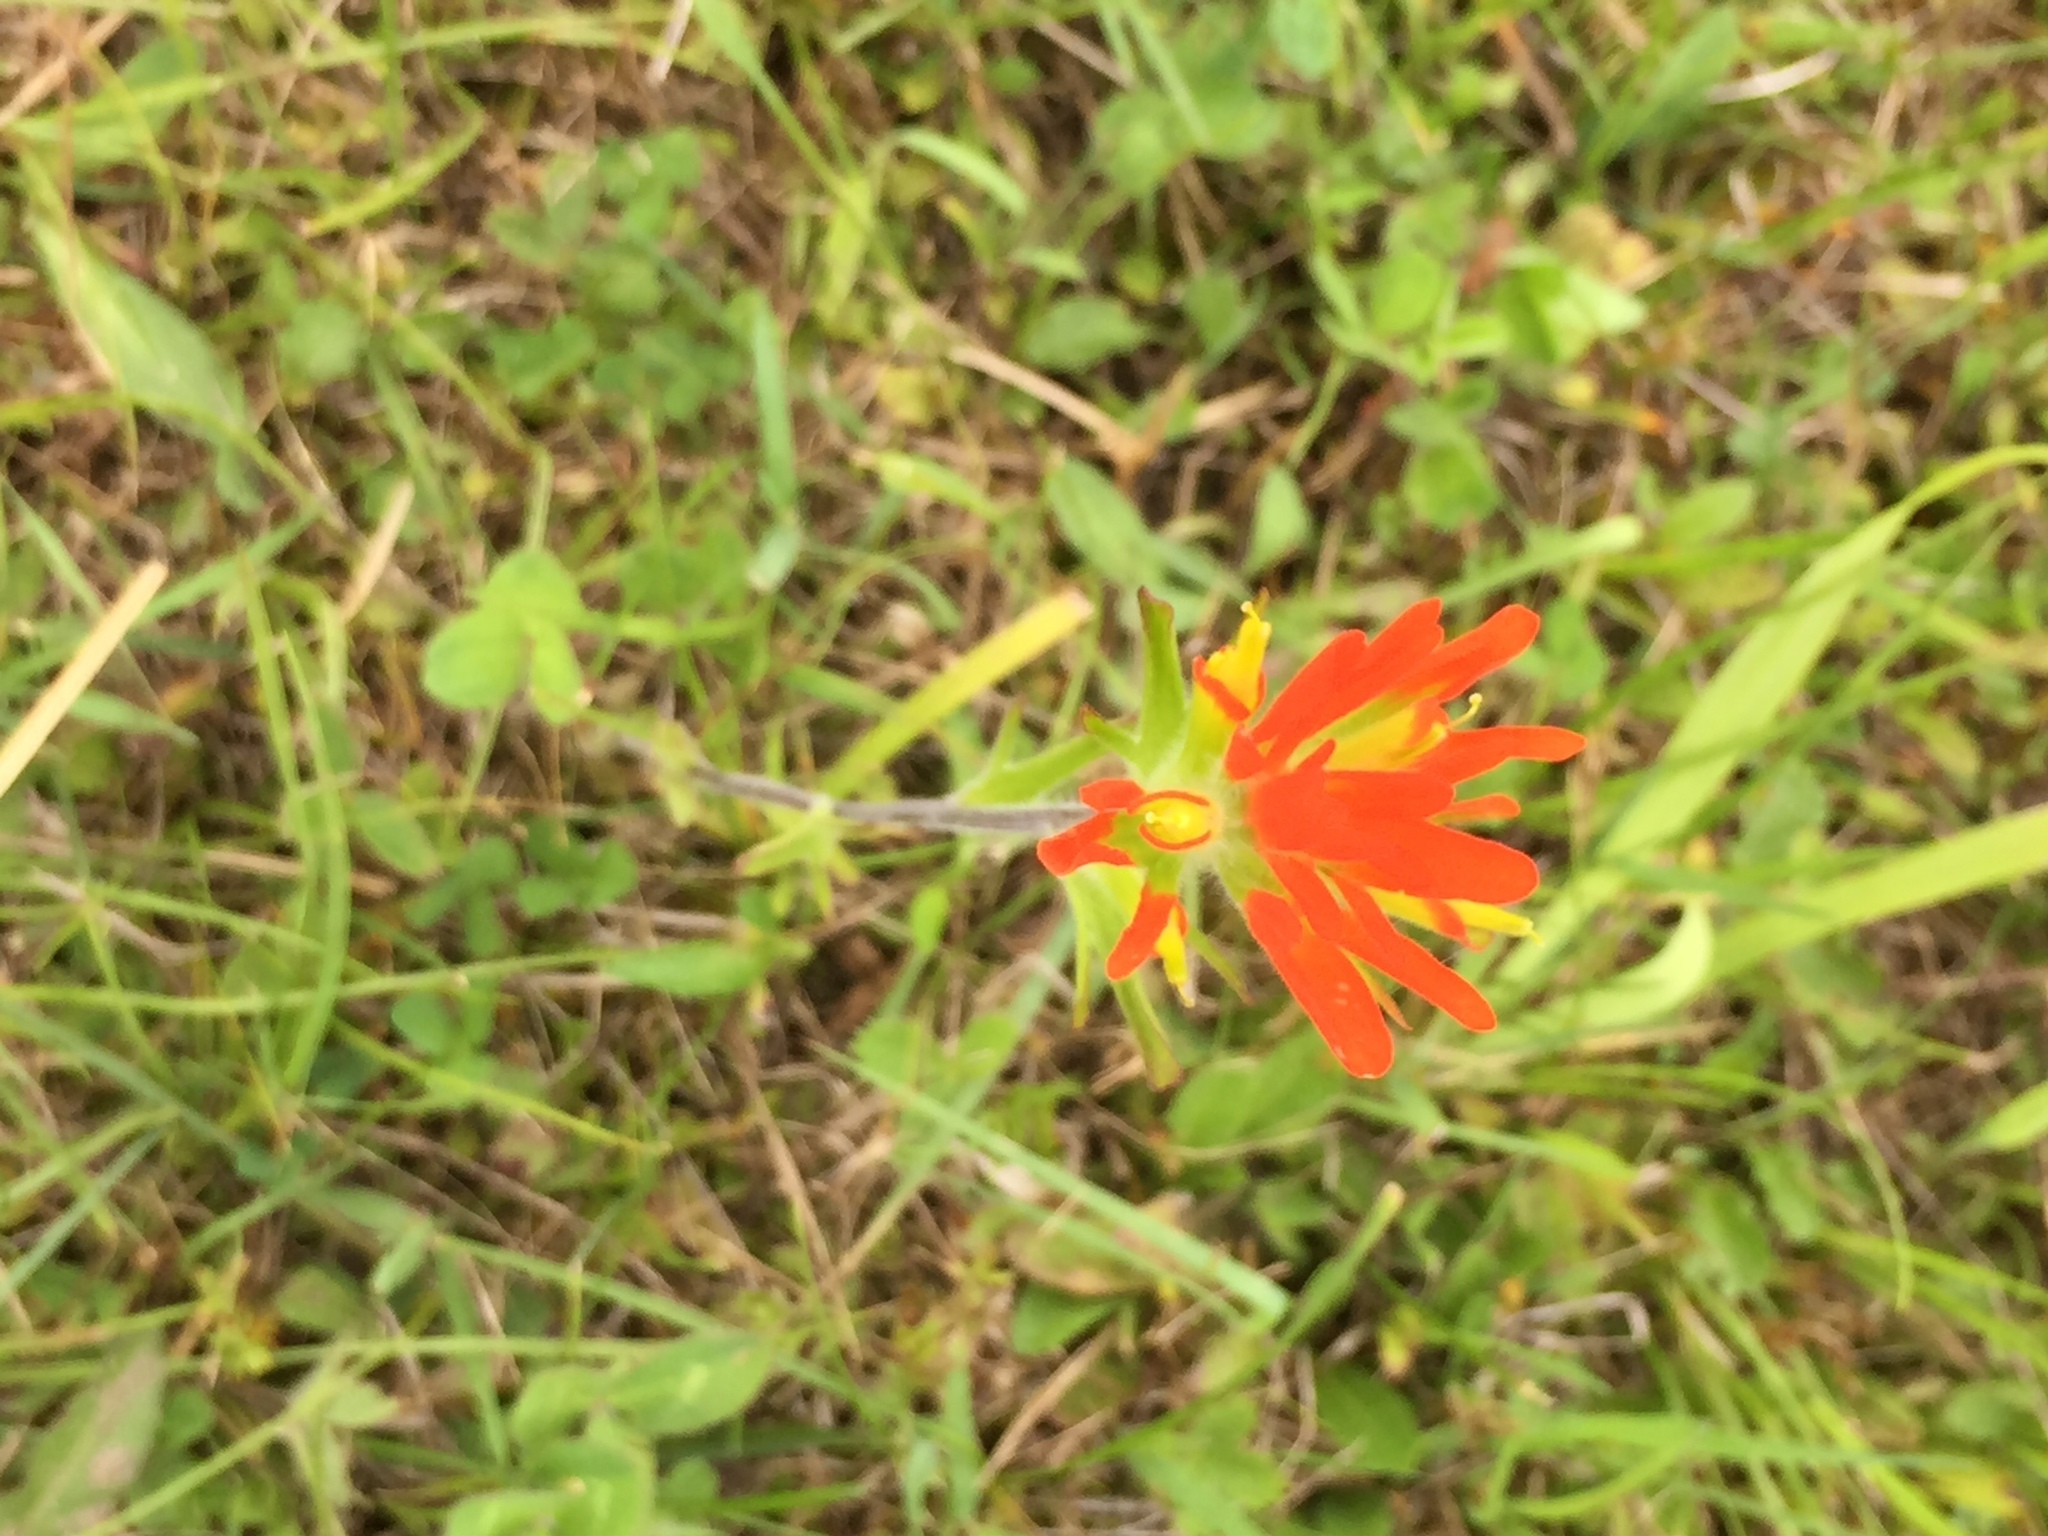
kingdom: Plantae
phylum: Tracheophyta
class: Magnoliopsida
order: Lamiales
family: Orobanchaceae
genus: Castilleja
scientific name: Castilleja coccinea
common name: Scarlet paintbrush
